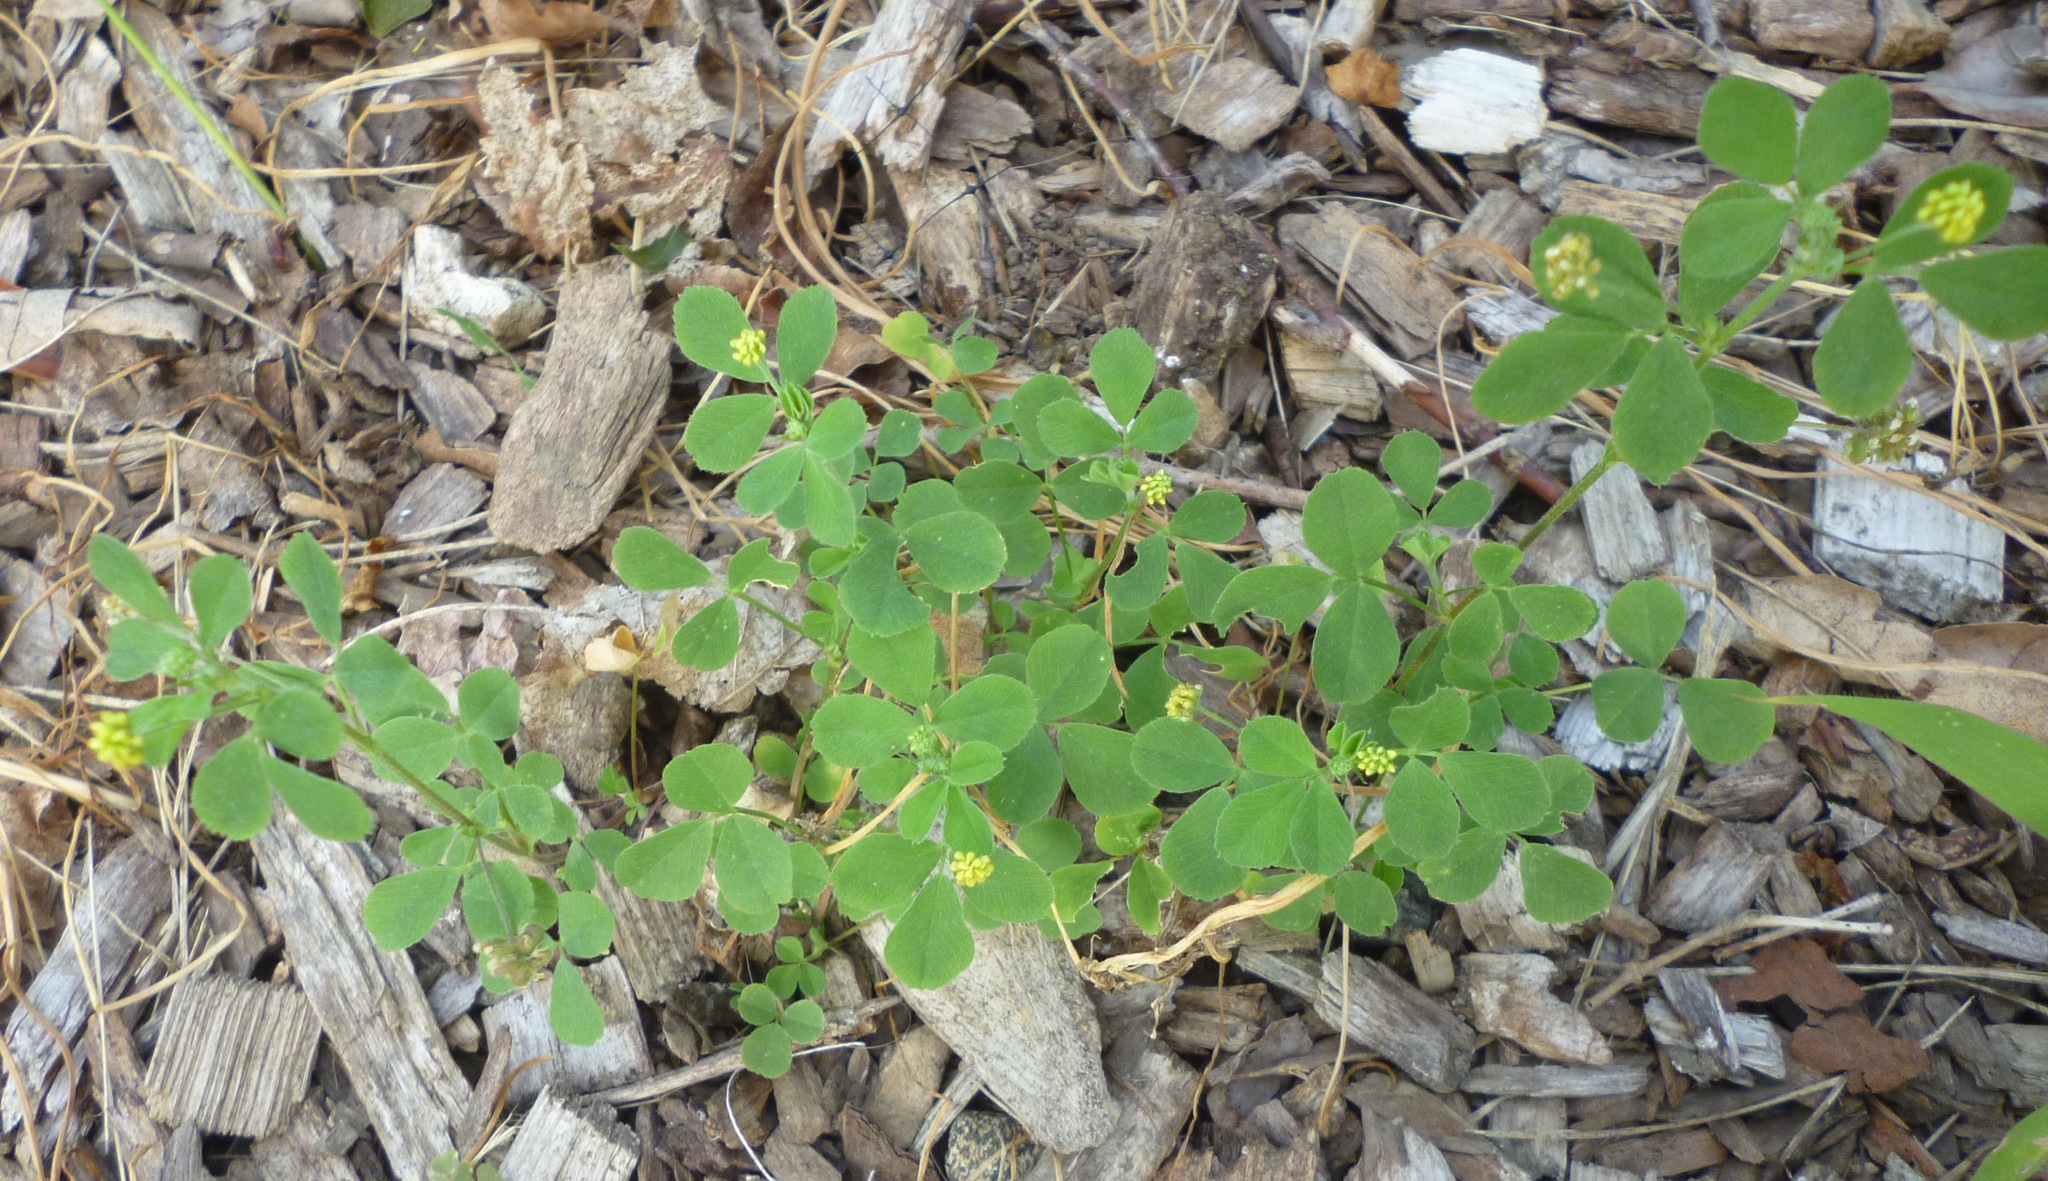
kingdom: Plantae
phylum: Tracheophyta
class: Magnoliopsida
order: Fabales
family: Fabaceae
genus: Medicago
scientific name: Medicago lupulina
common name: Black medick
